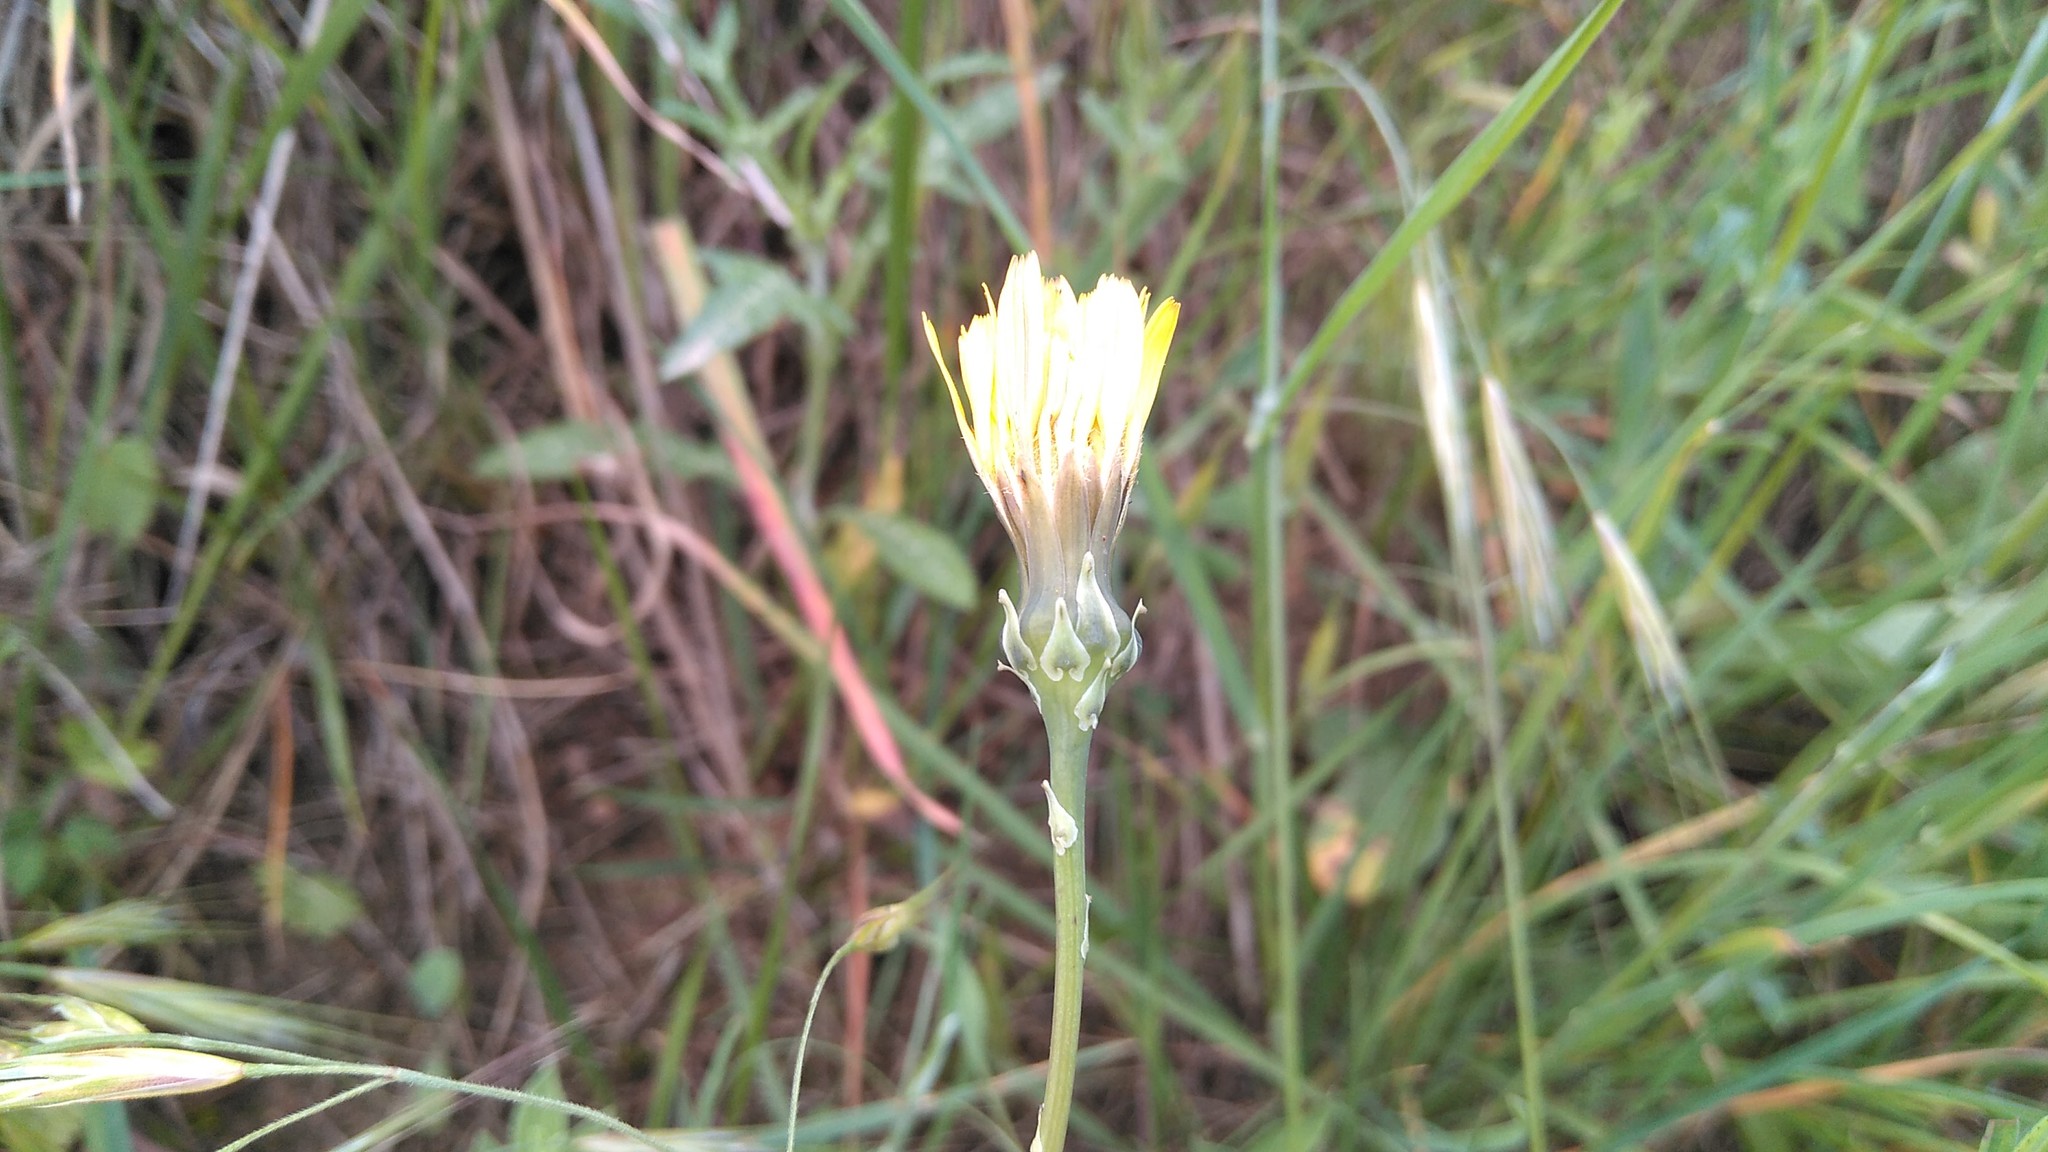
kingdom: Plantae
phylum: Tracheophyta
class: Magnoliopsida
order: Asterales
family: Asteraceae
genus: Reichardia
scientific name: Reichardia picroides
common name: Common brighteyes
